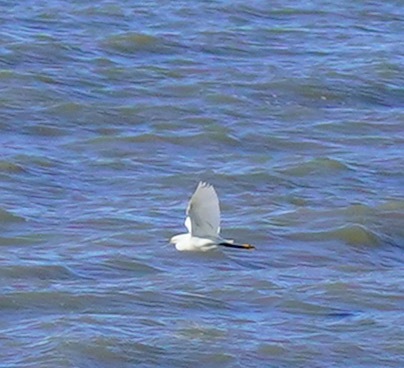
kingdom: Animalia
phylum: Chordata
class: Aves
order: Pelecaniformes
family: Ardeidae
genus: Egretta
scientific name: Egretta thula
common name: Snowy egret
